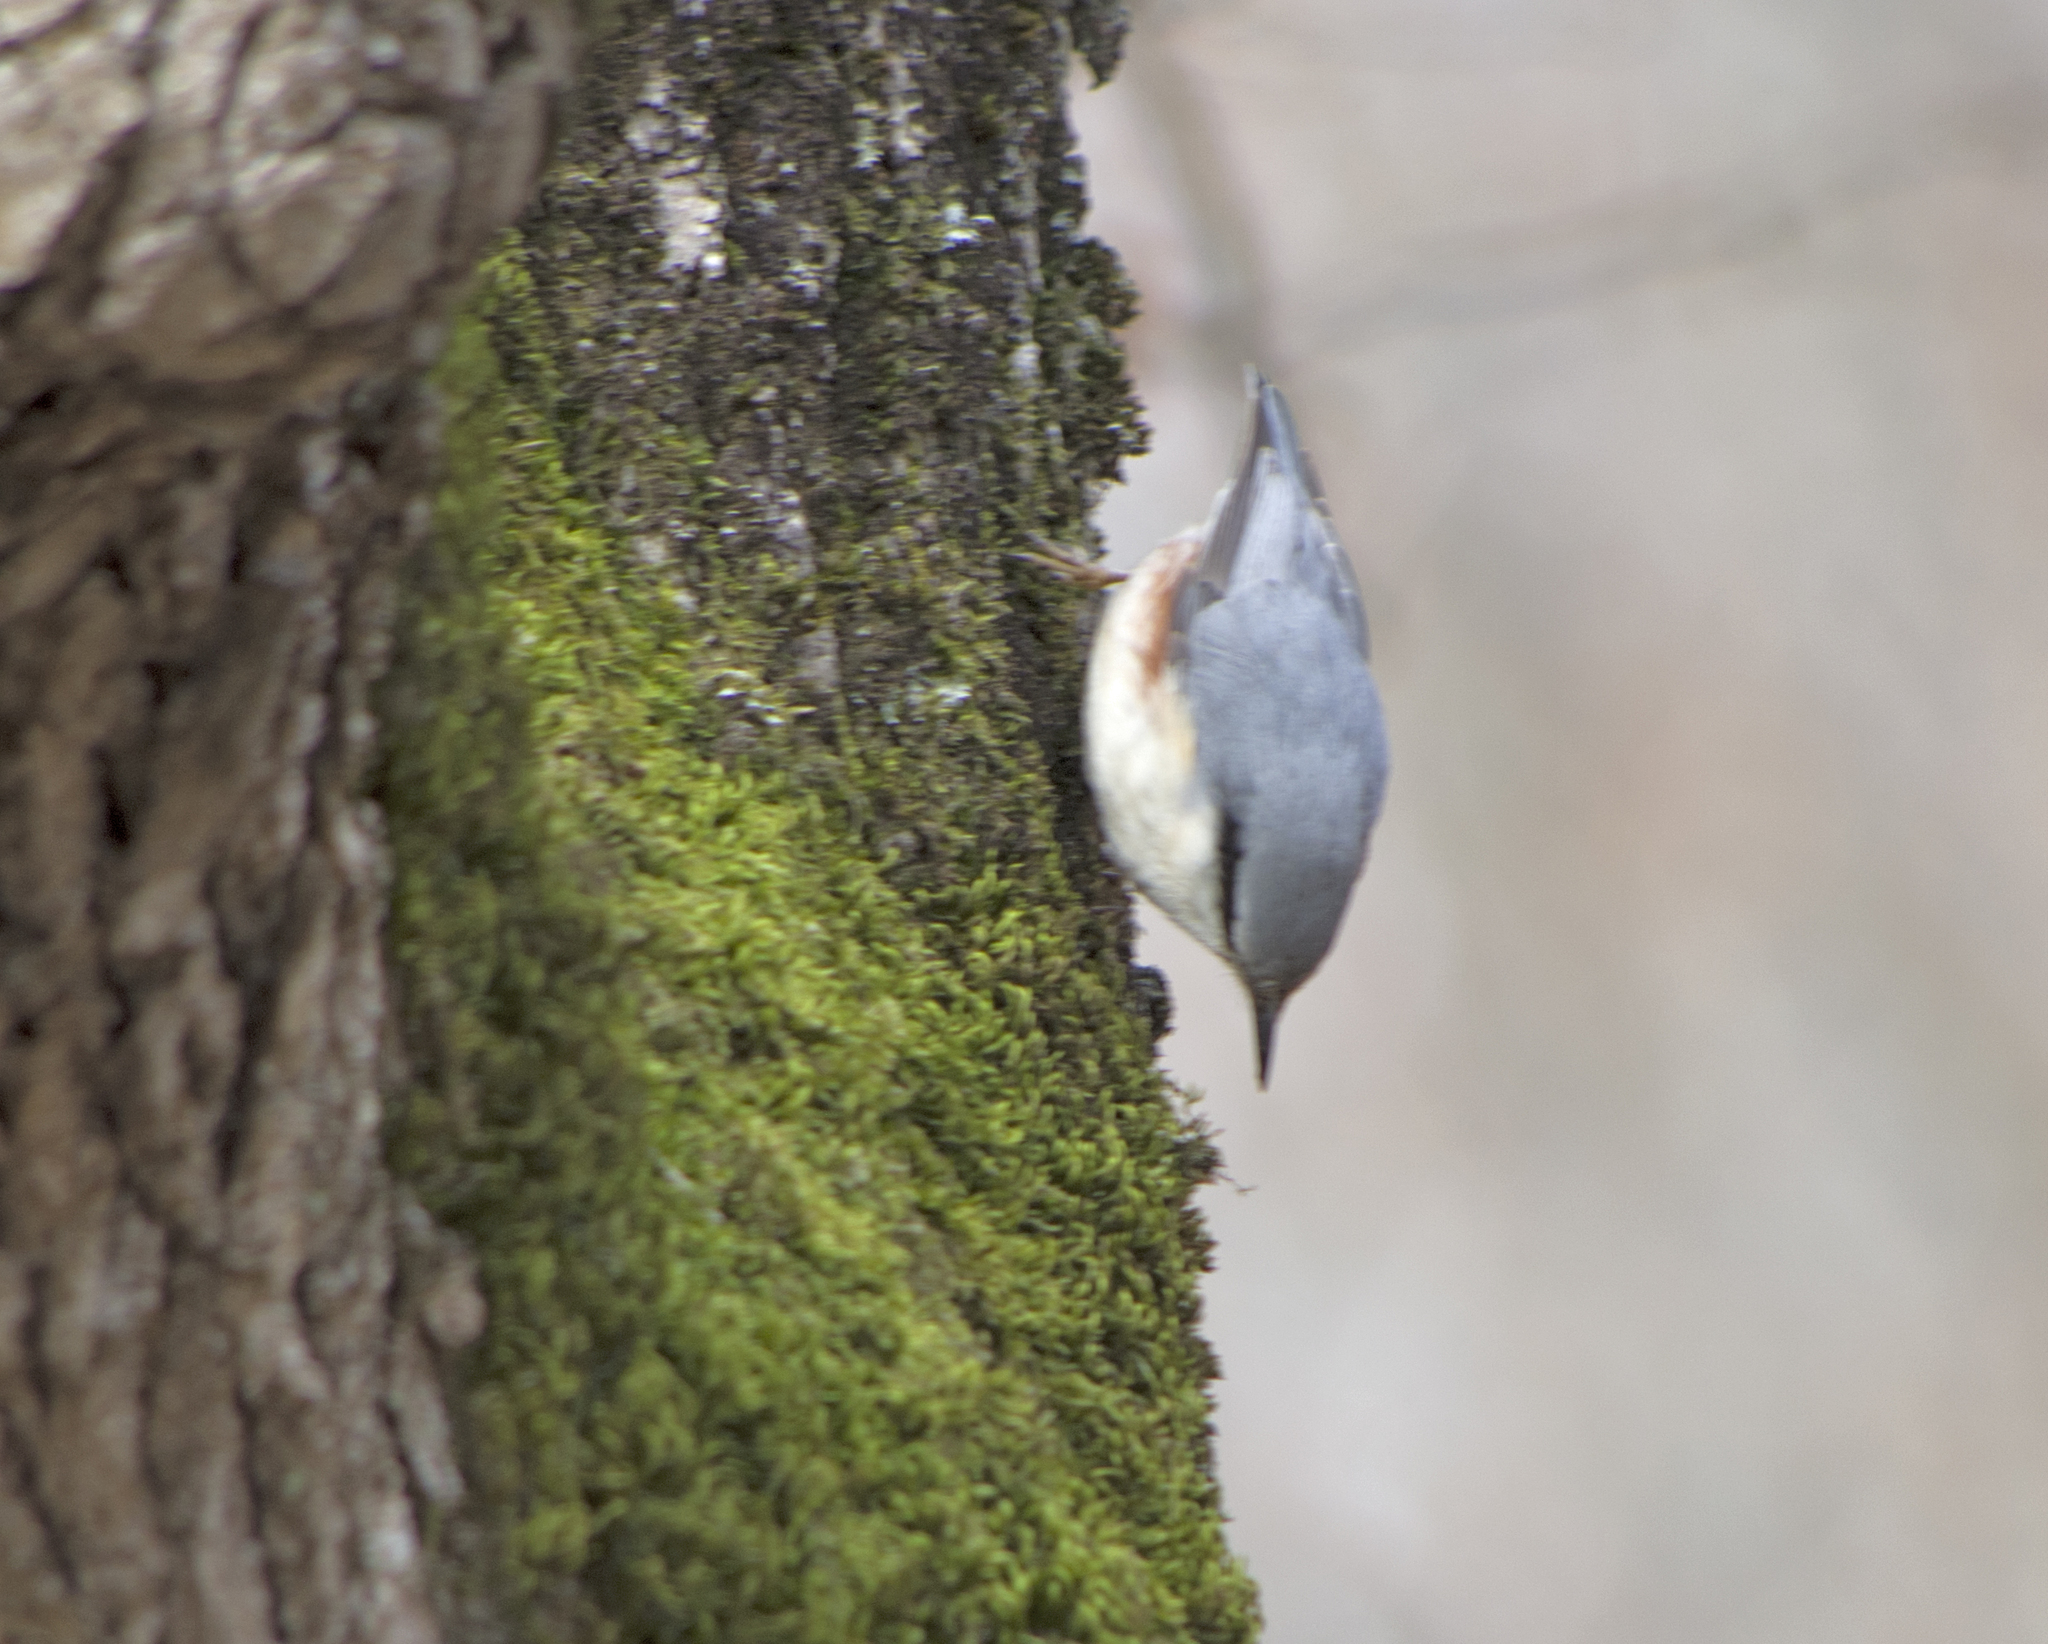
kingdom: Animalia
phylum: Chordata
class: Aves
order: Passeriformes
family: Sittidae
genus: Sitta
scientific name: Sitta europaea
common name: Eurasian nuthatch
